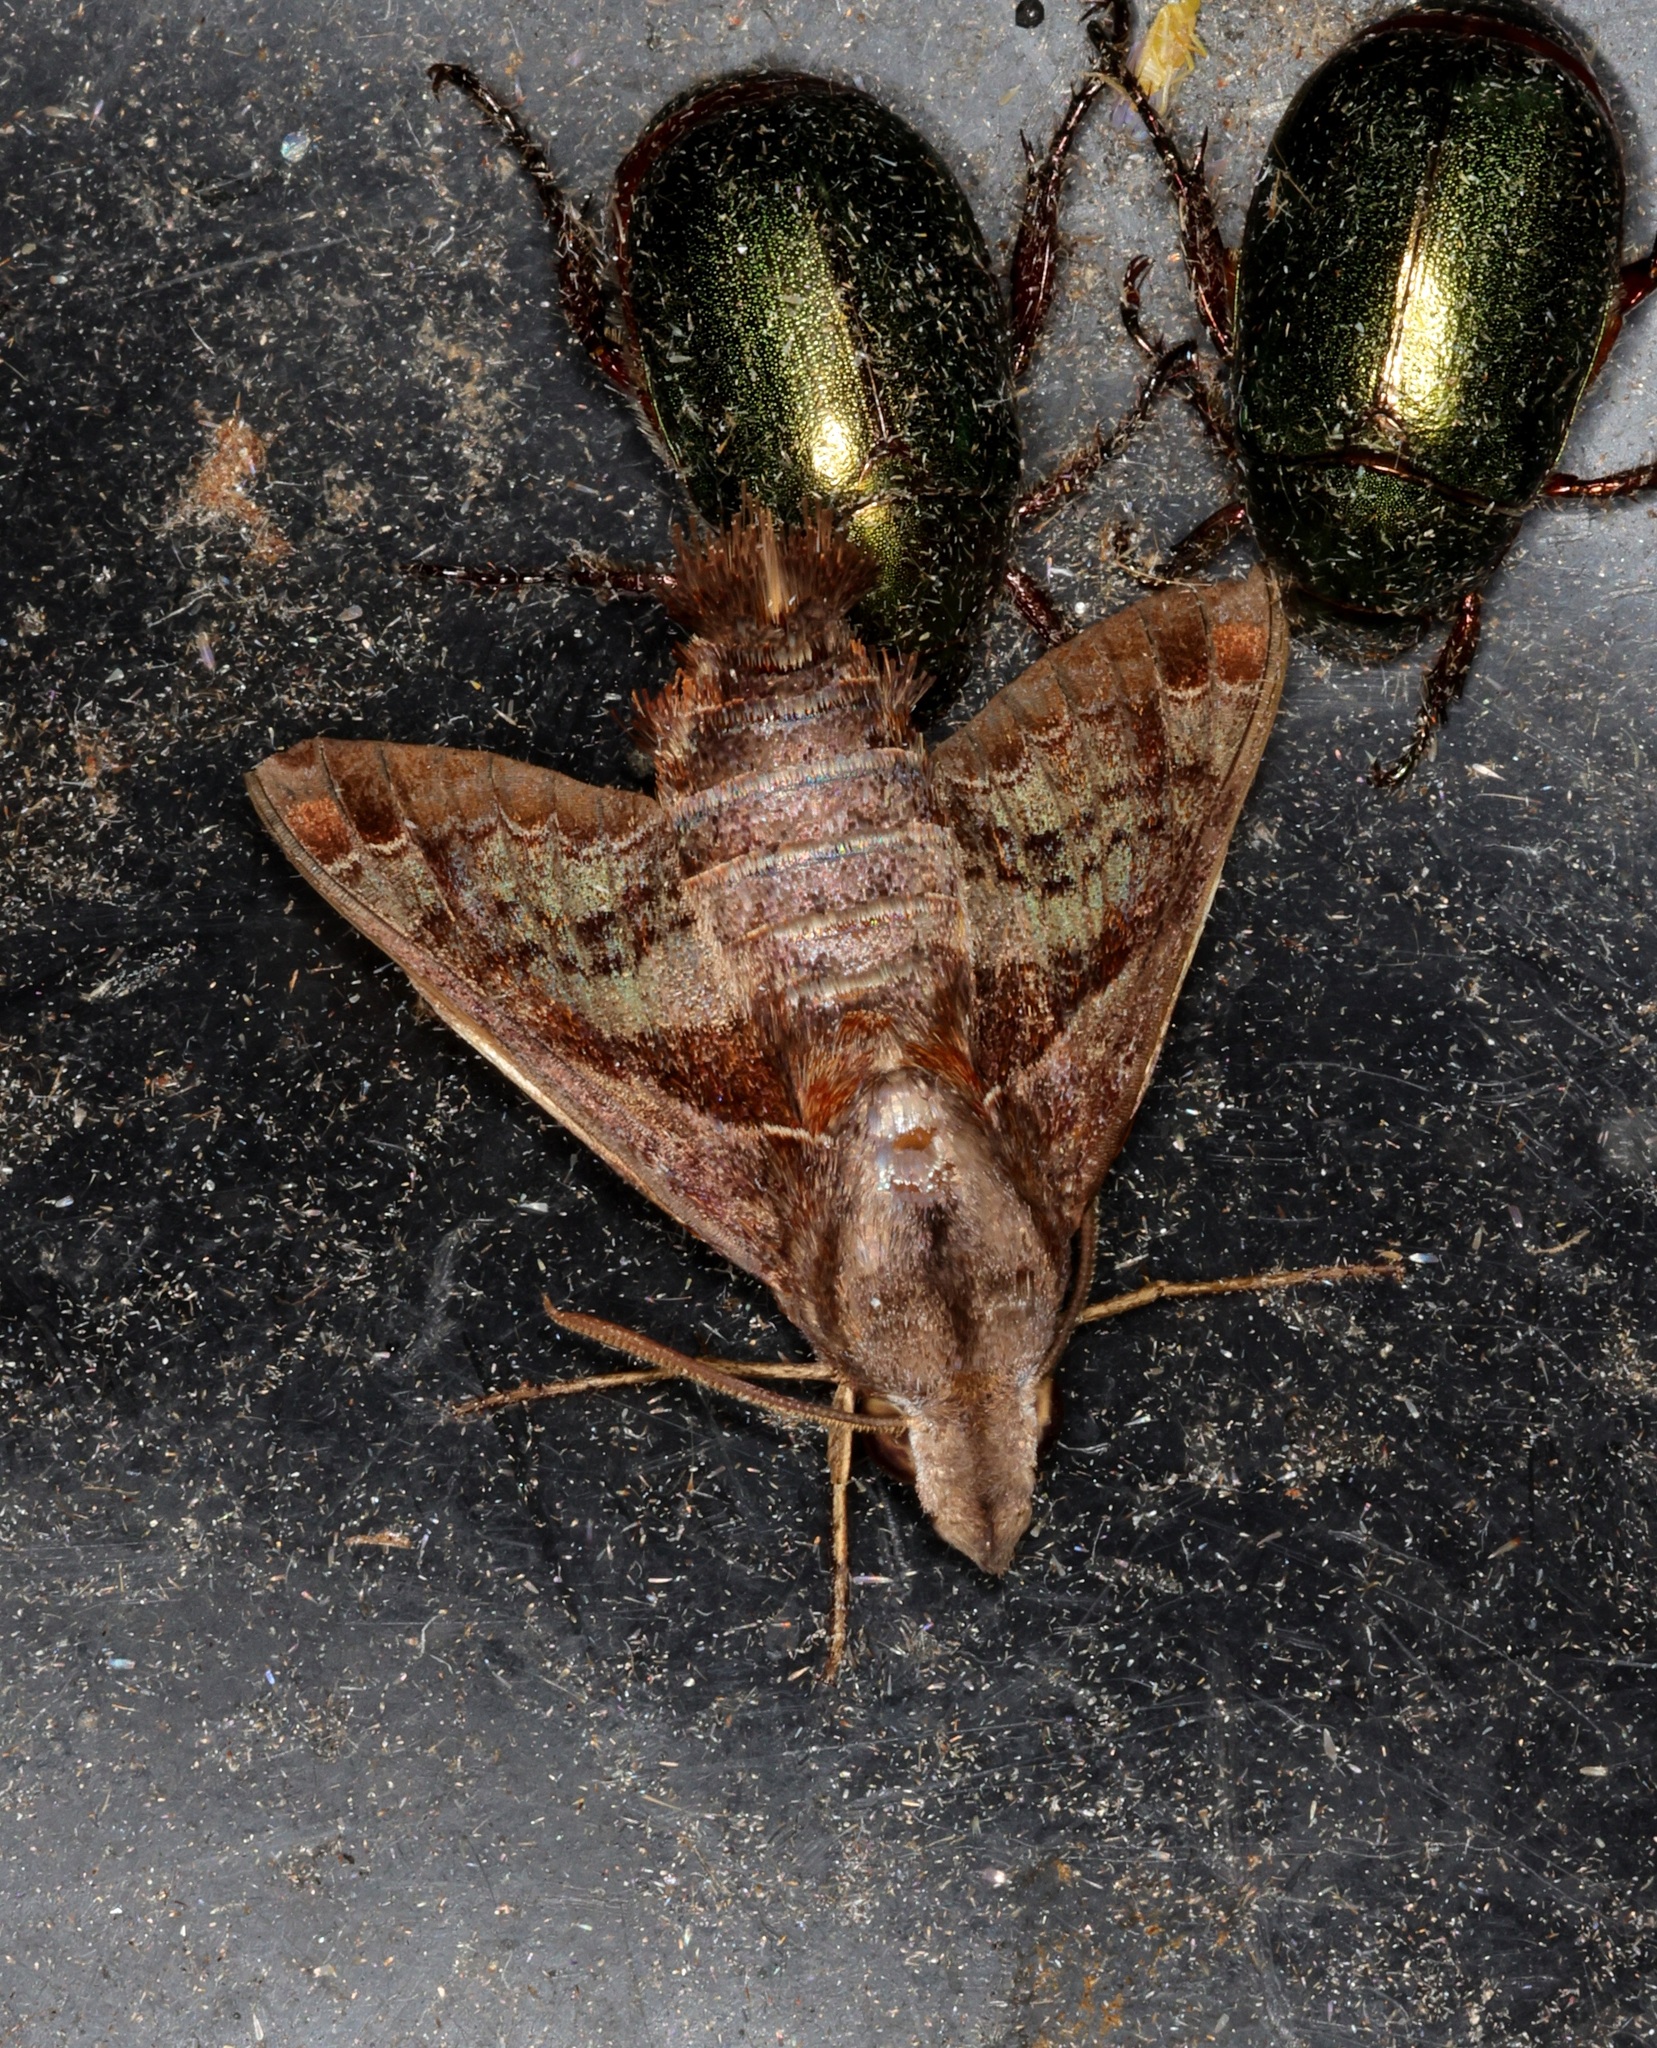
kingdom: Animalia
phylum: Arthropoda
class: Insecta
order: Lepidoptera
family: Sphingidae
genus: Macroglossum
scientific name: Macroglossum fritzei
